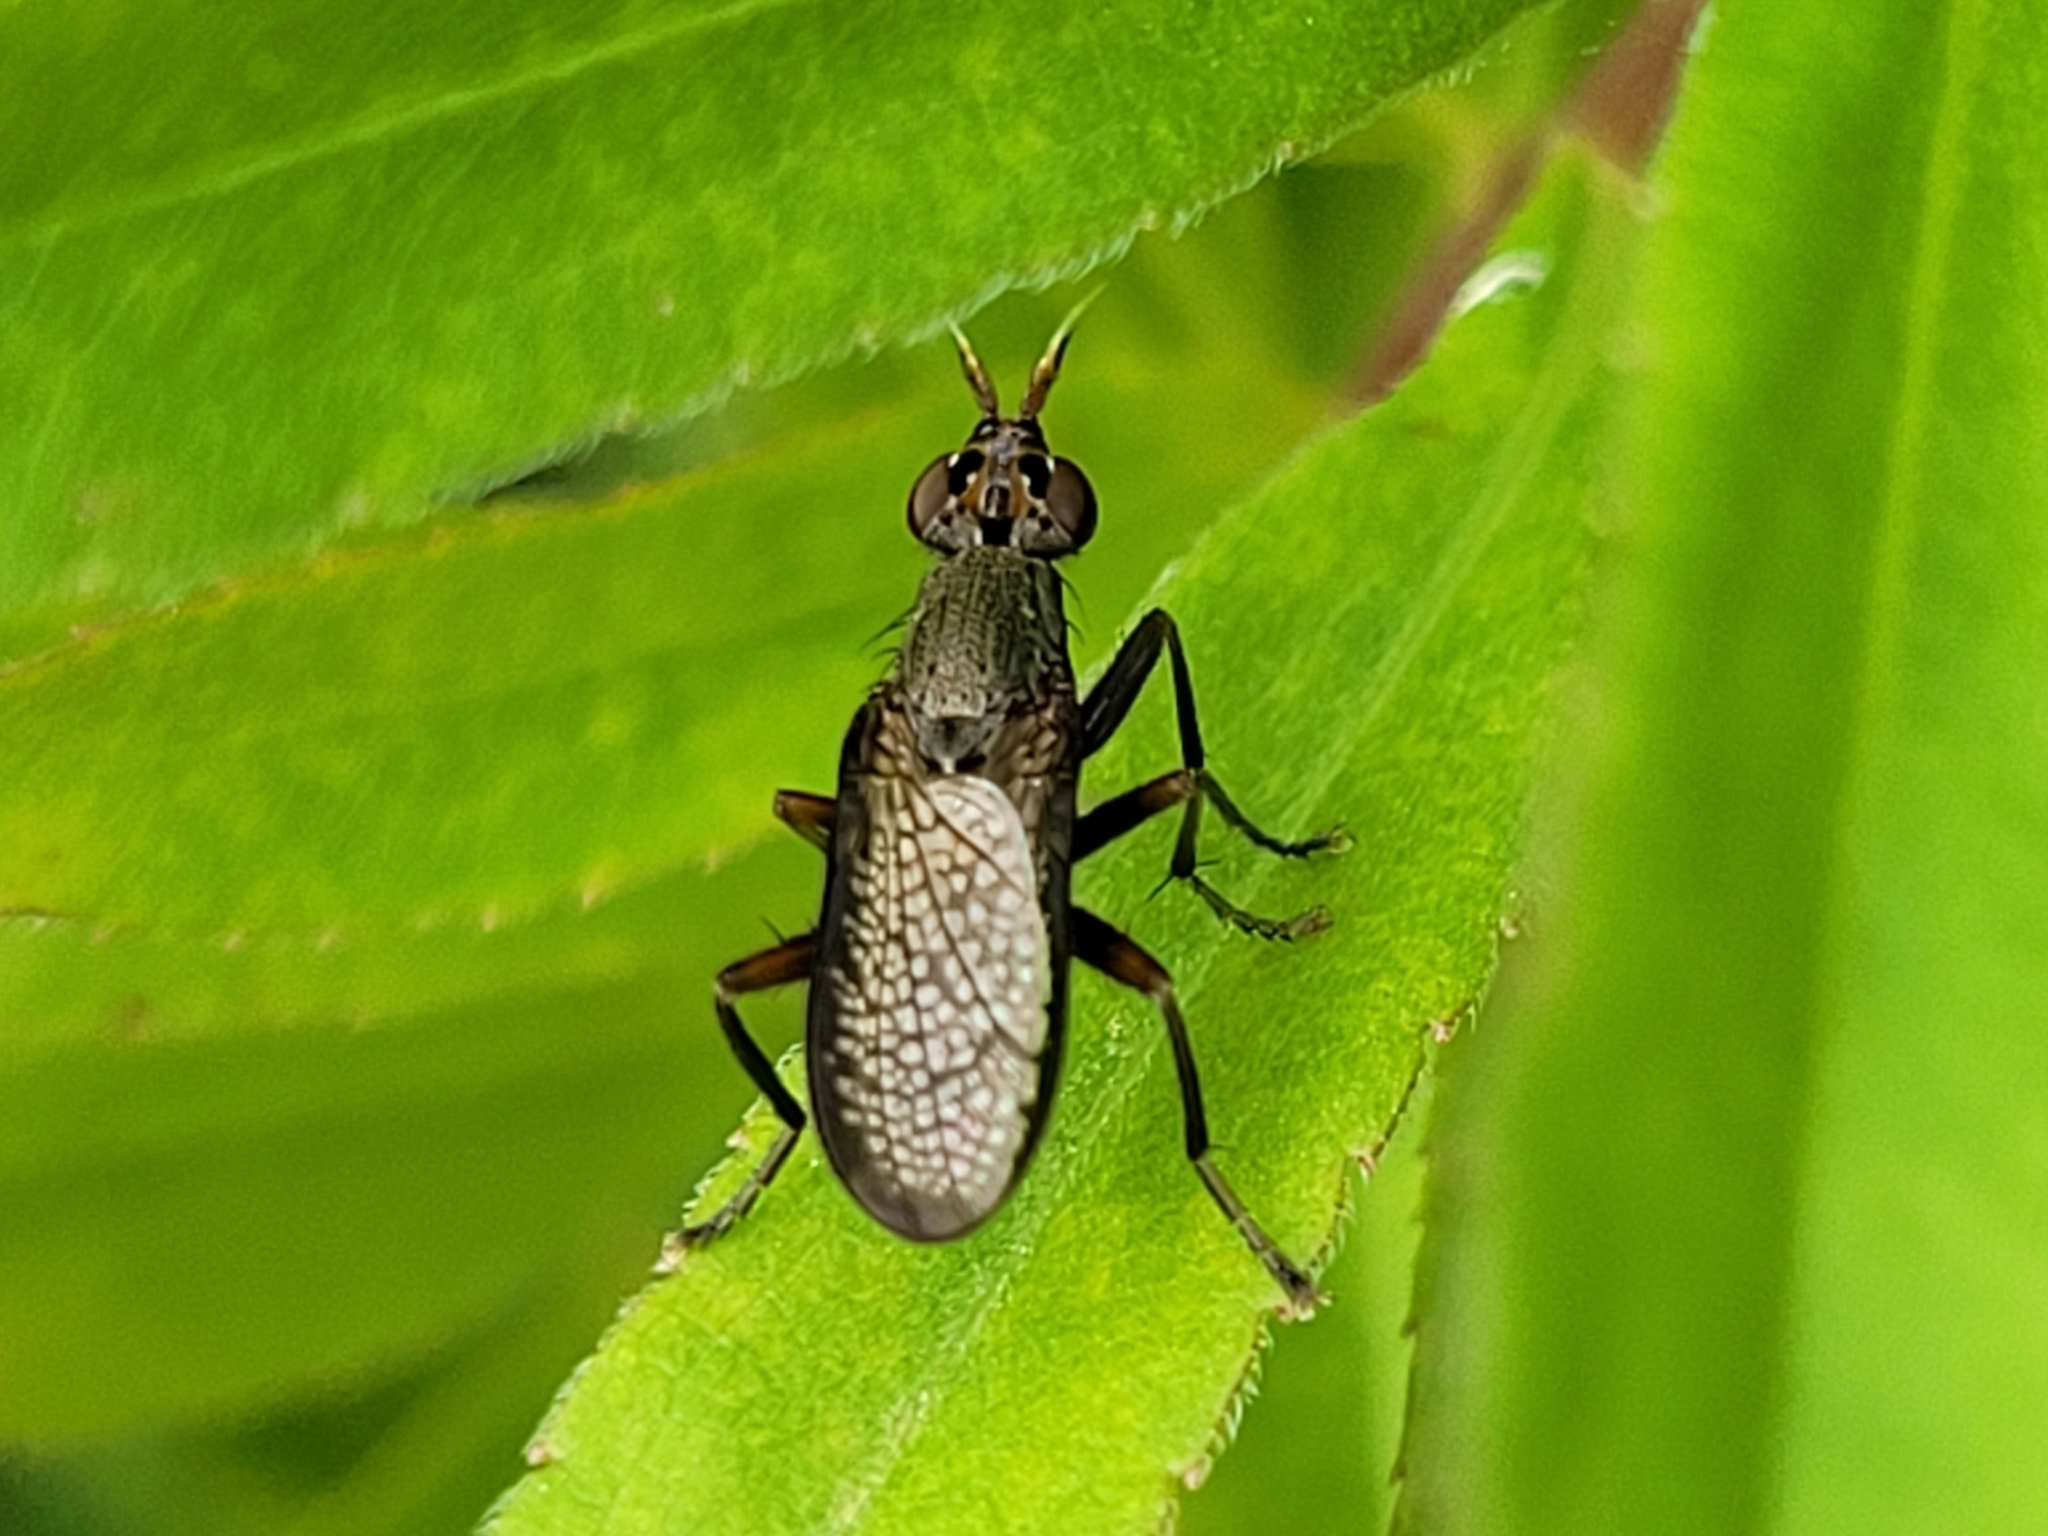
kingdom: Animalia
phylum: Arthropoda
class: Insecta
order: Diptera
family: Sciomyzidae
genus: Coremacera
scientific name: Coremacera marginata
